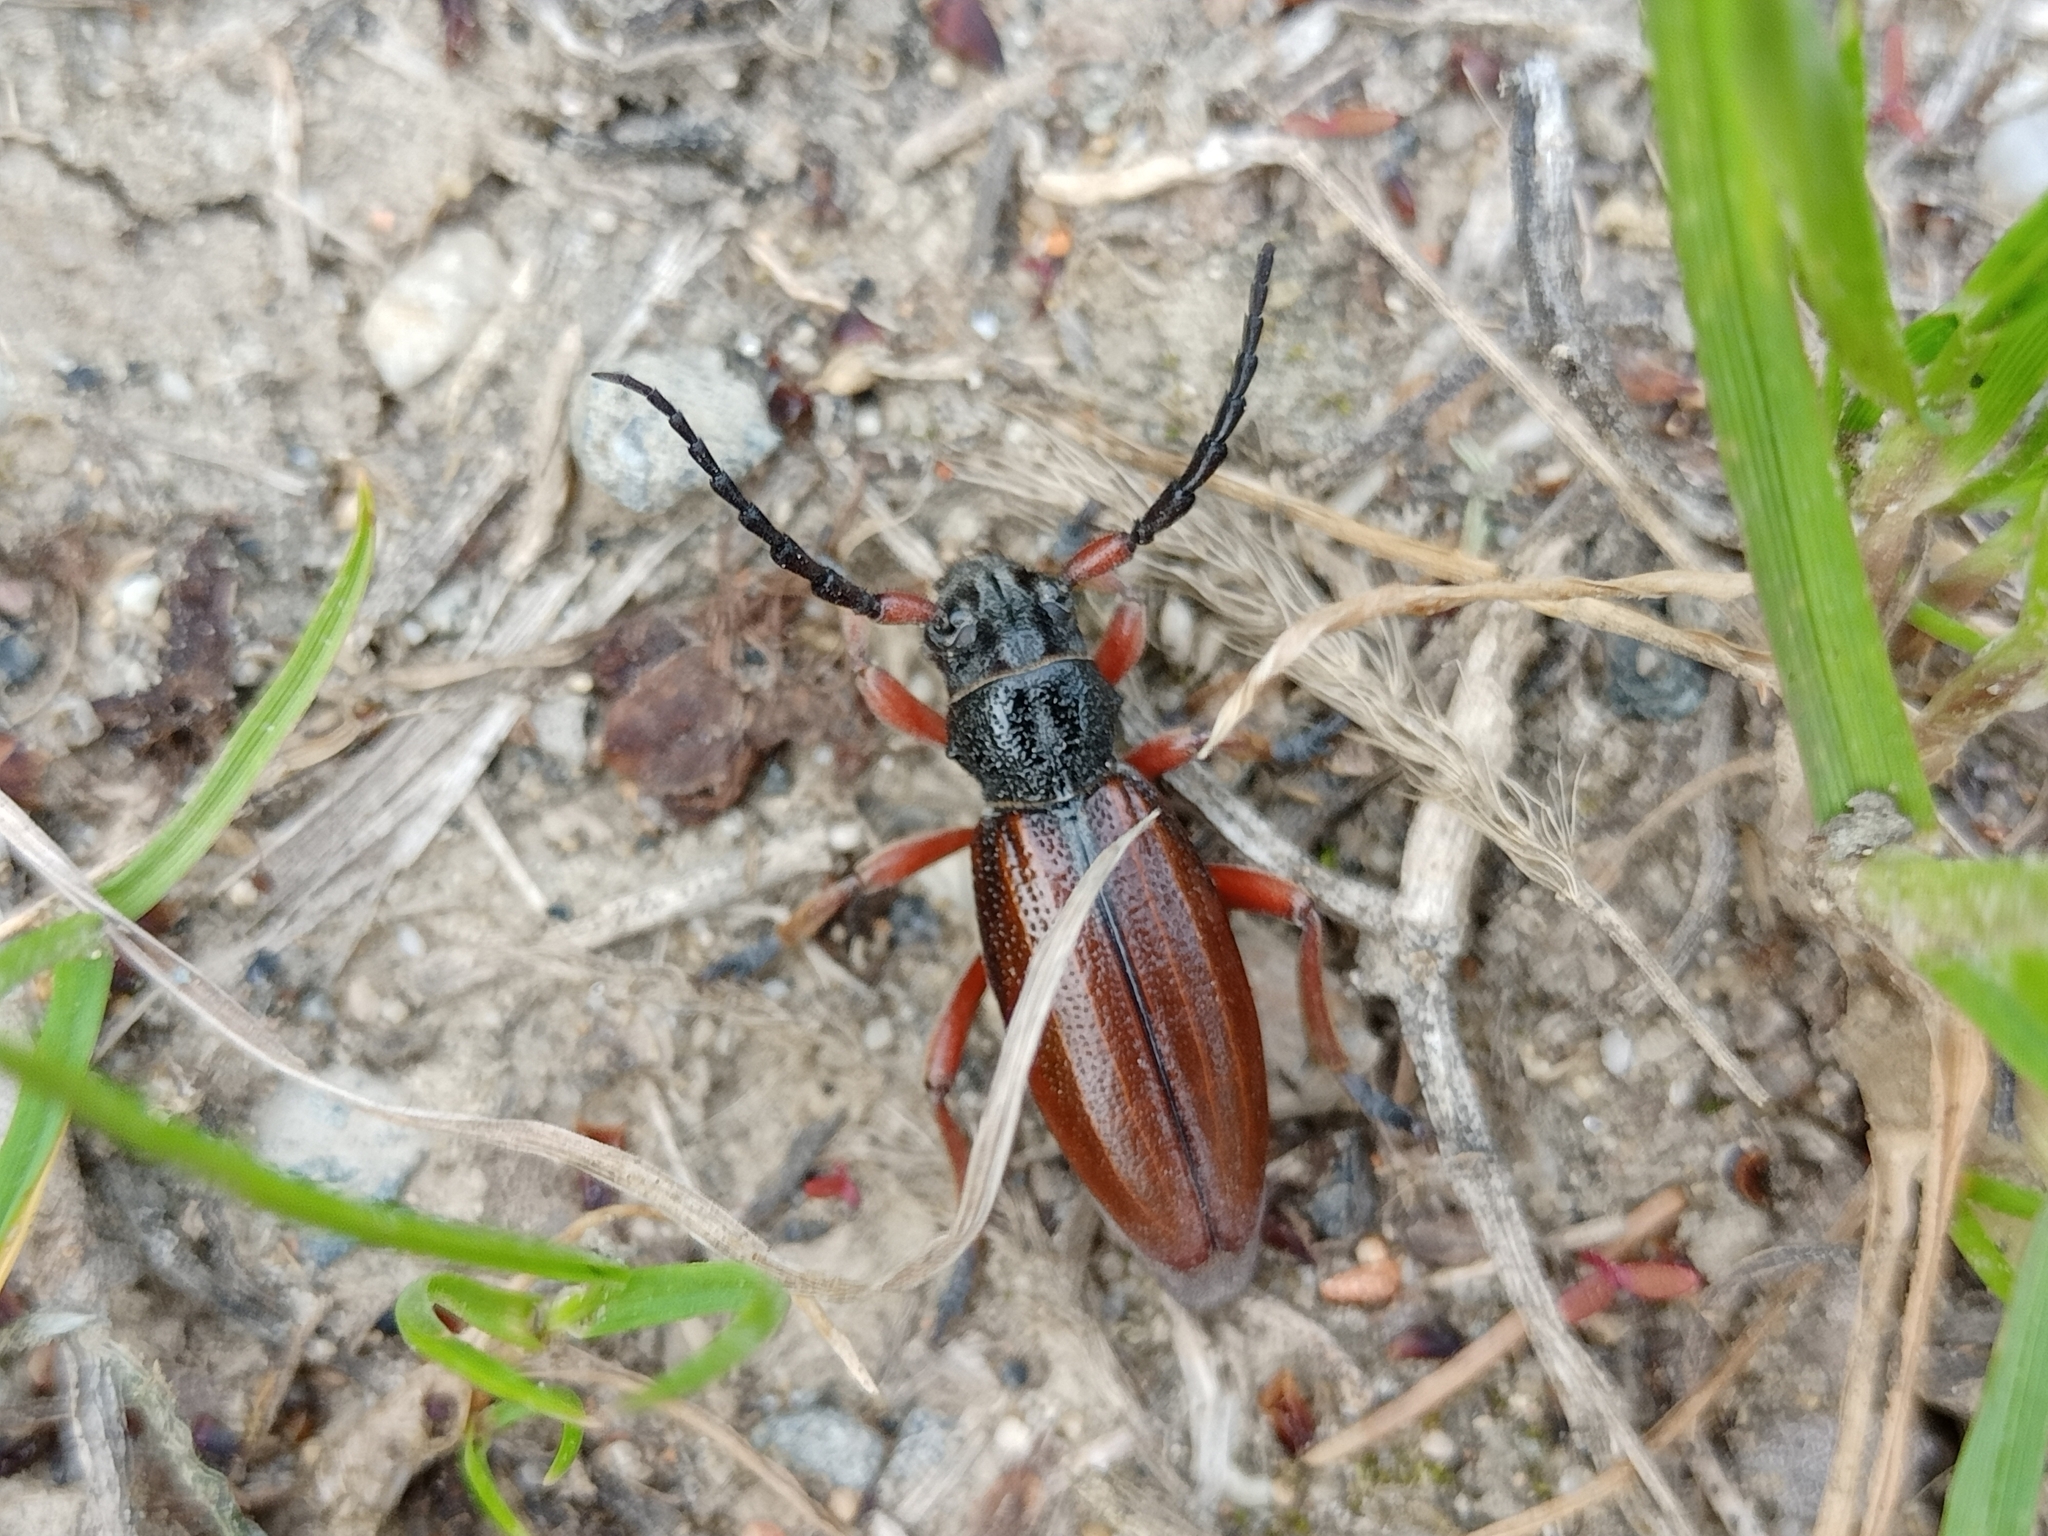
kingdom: Animalia
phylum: Arthropoda
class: Insecta
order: Coleoptera
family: Cerambycidae
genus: Dorcadion
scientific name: Dorcadion fulvum
